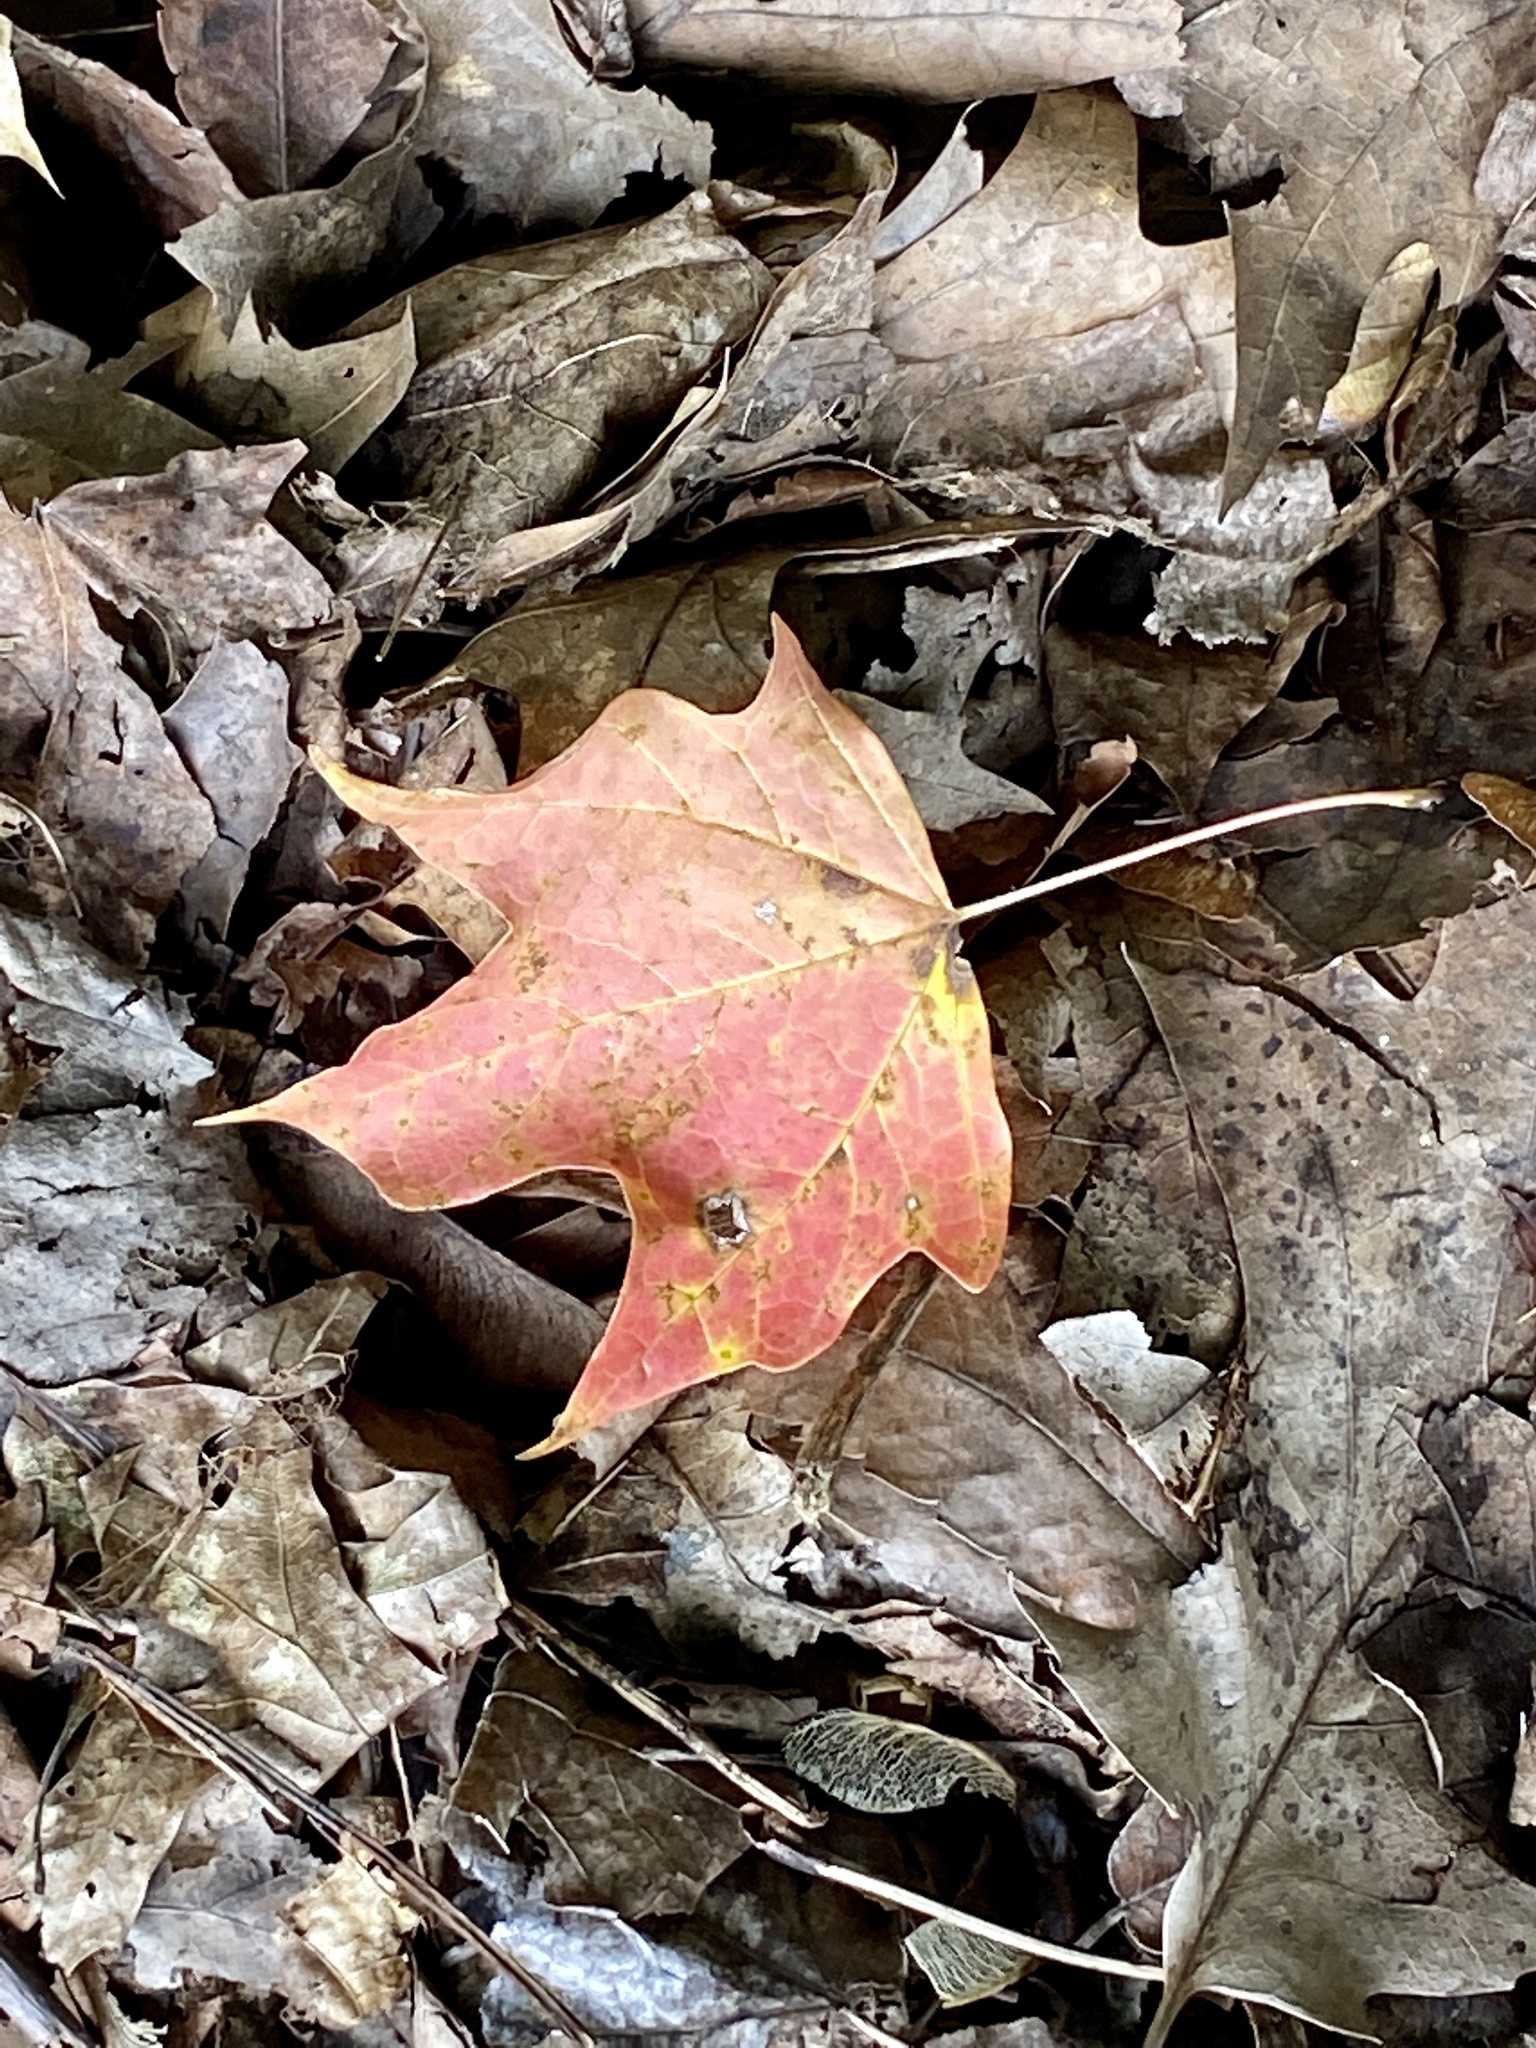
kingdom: Plantae
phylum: Tracheophyta
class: Magnoliopsida
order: Sapindales
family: Sapindaceae
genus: Acer
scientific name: Acer saccharum
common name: Sugar maple
